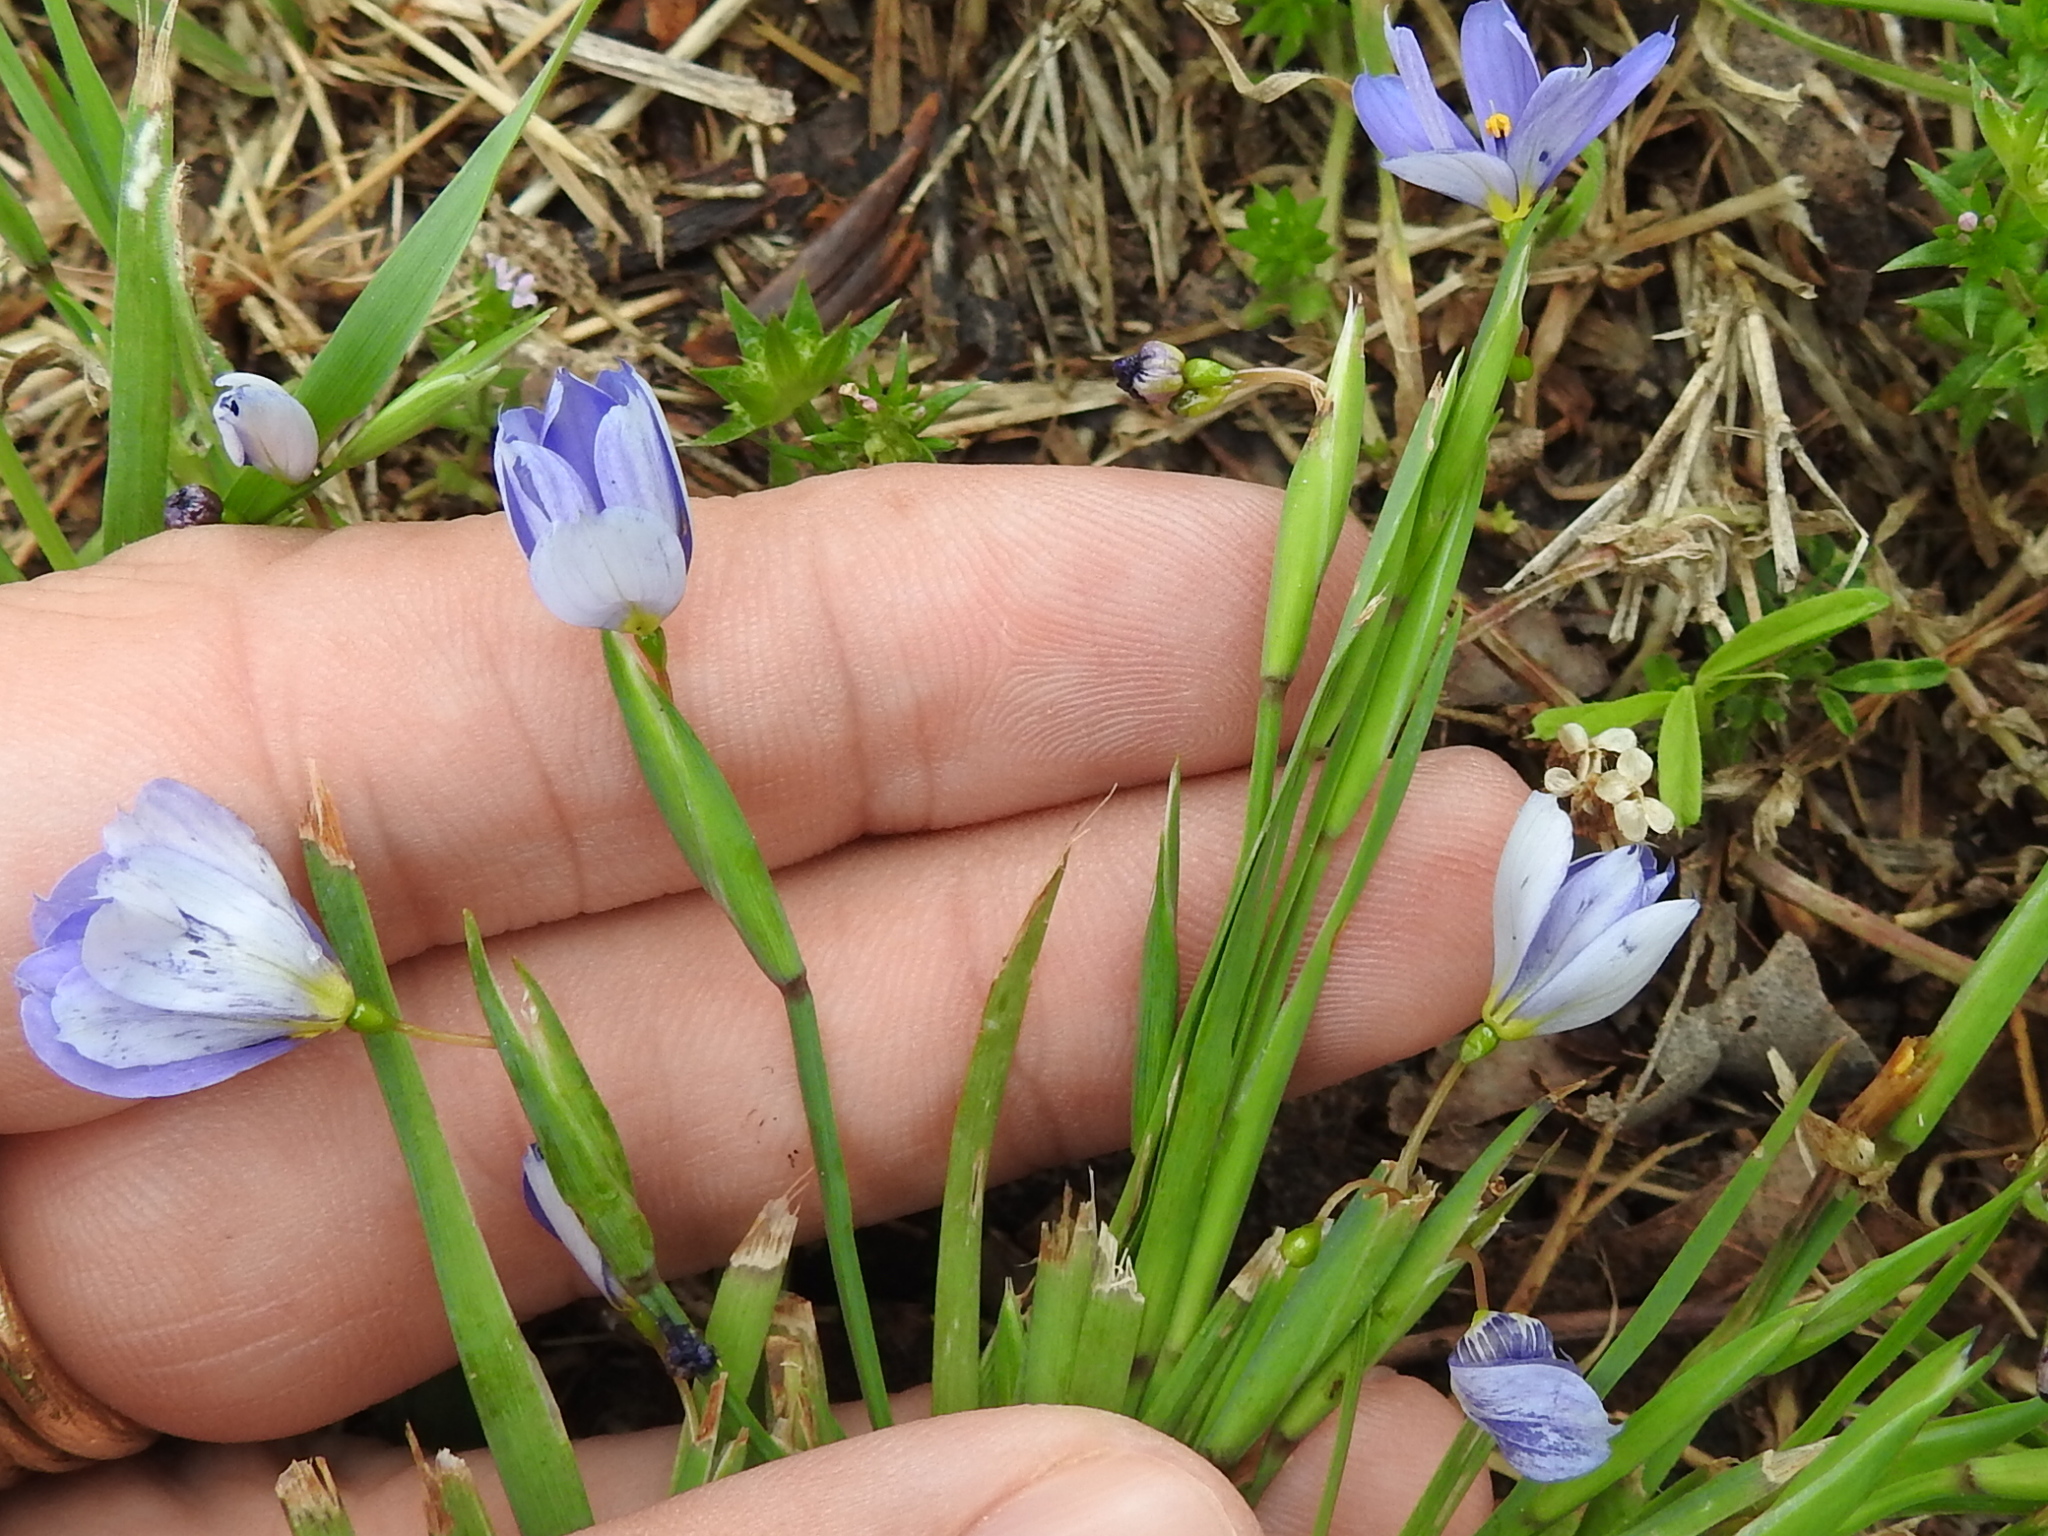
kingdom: Plantae
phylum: Tracheophyta
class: Liliopsida
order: Asparagales
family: Iridaceae
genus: Sisyrinchium
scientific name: Sisyrinchium pruinosum
